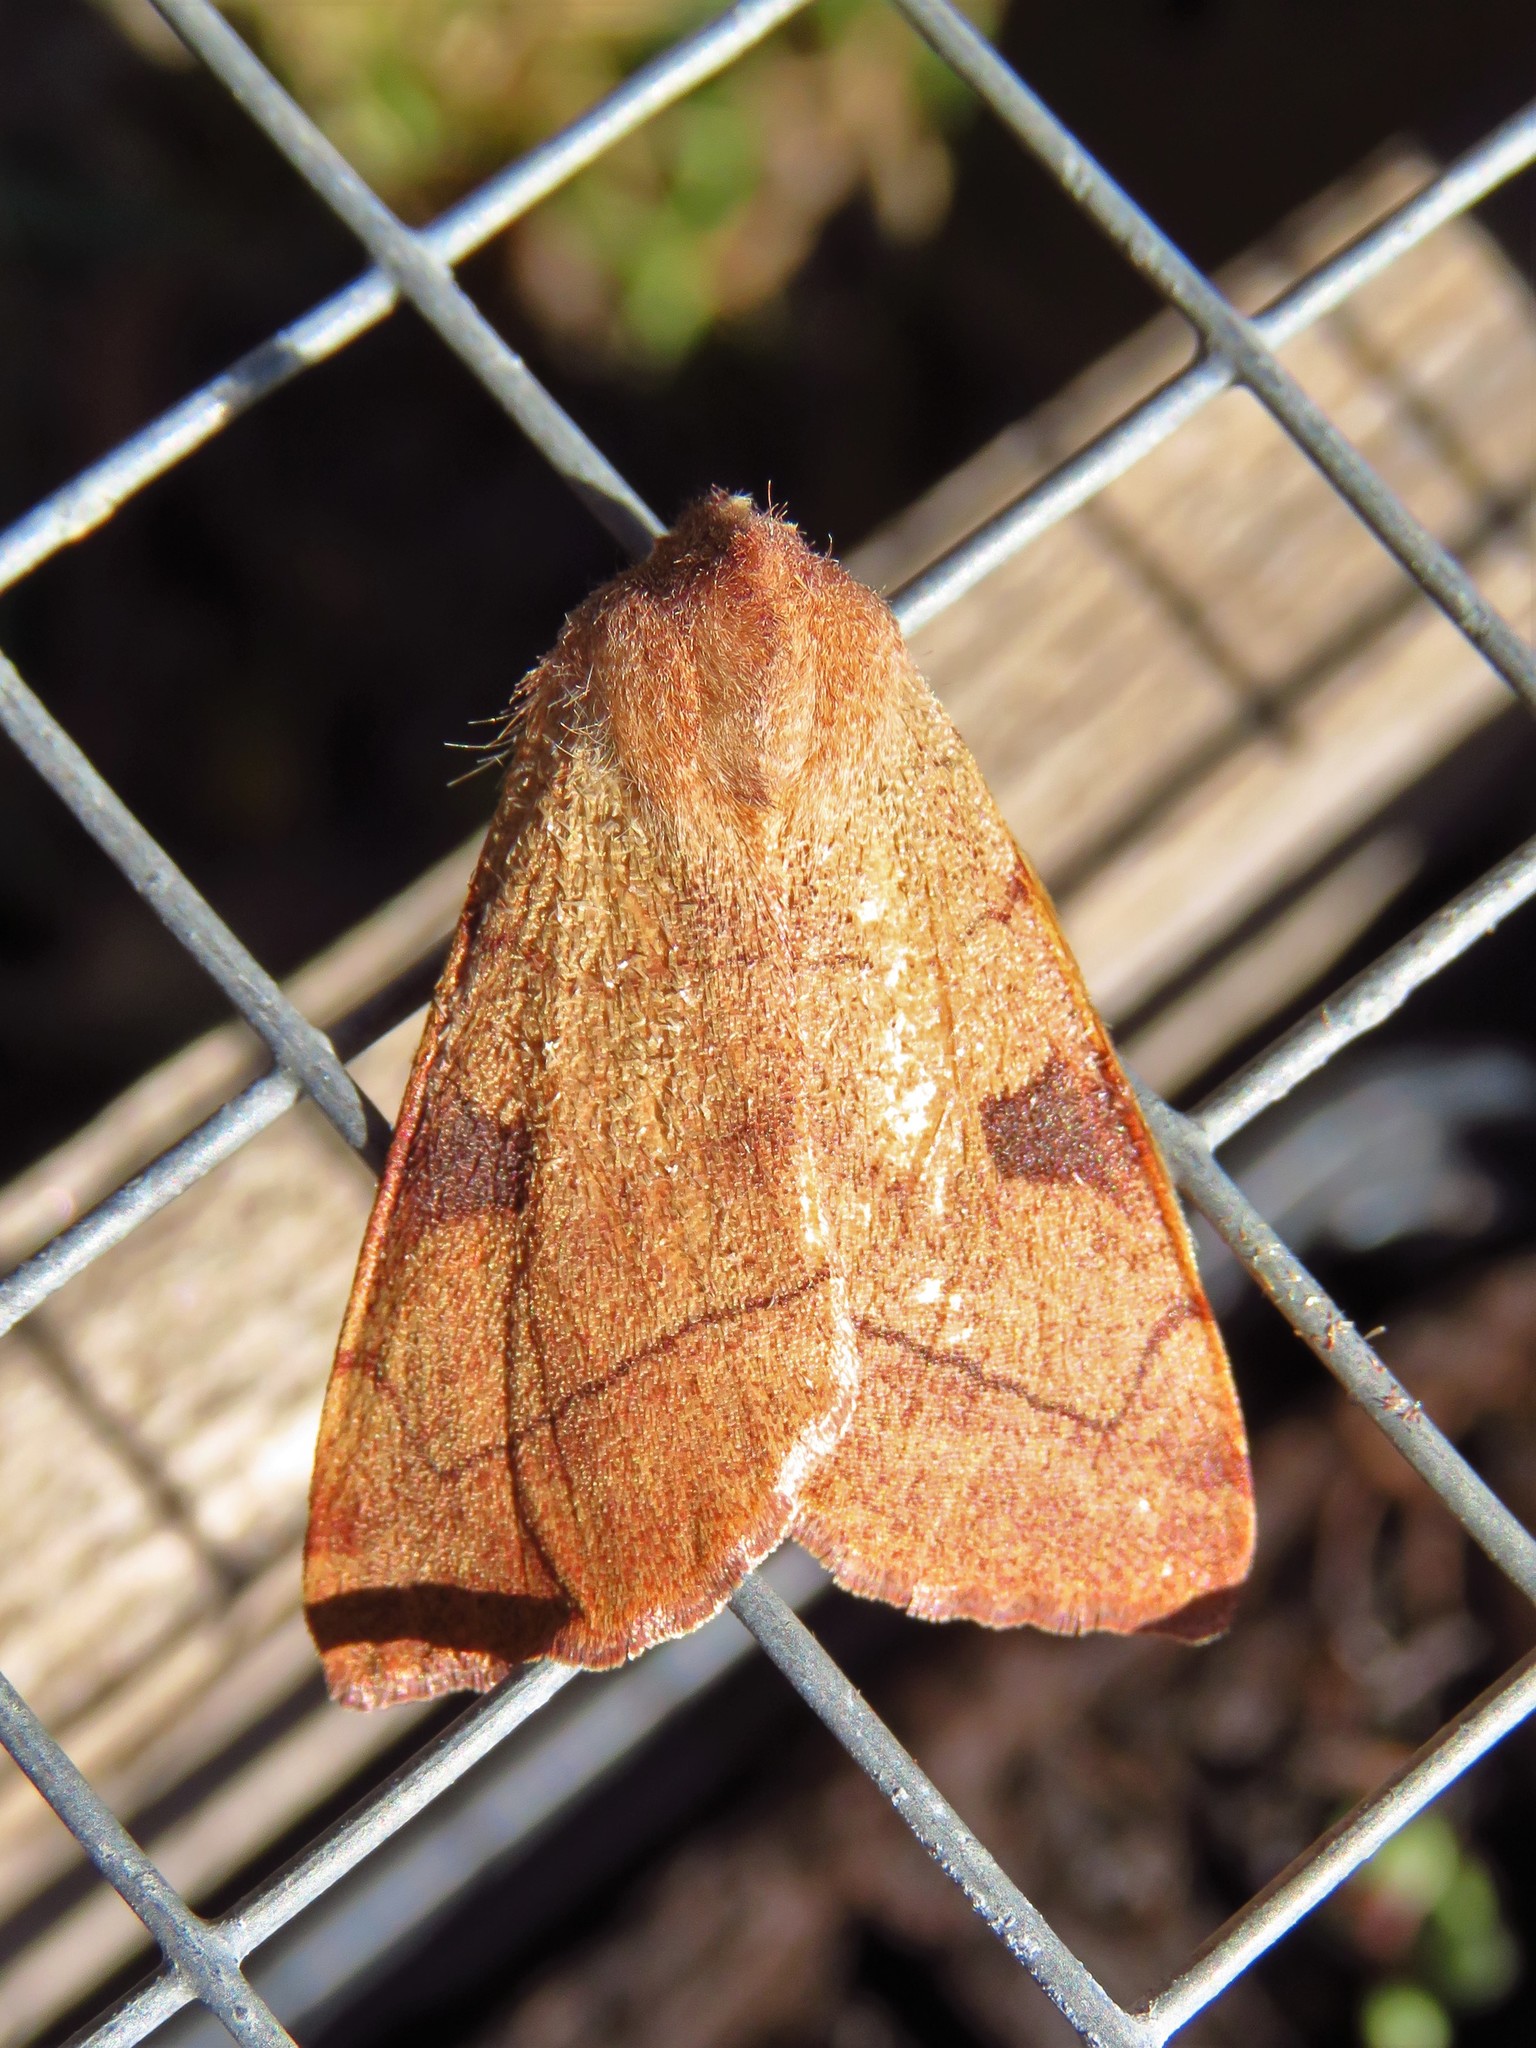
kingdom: Animalia
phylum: Arthropoda
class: Insecta
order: Lepidoptera
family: Noctuidae
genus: Choephora
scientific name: Choephora fungorum
